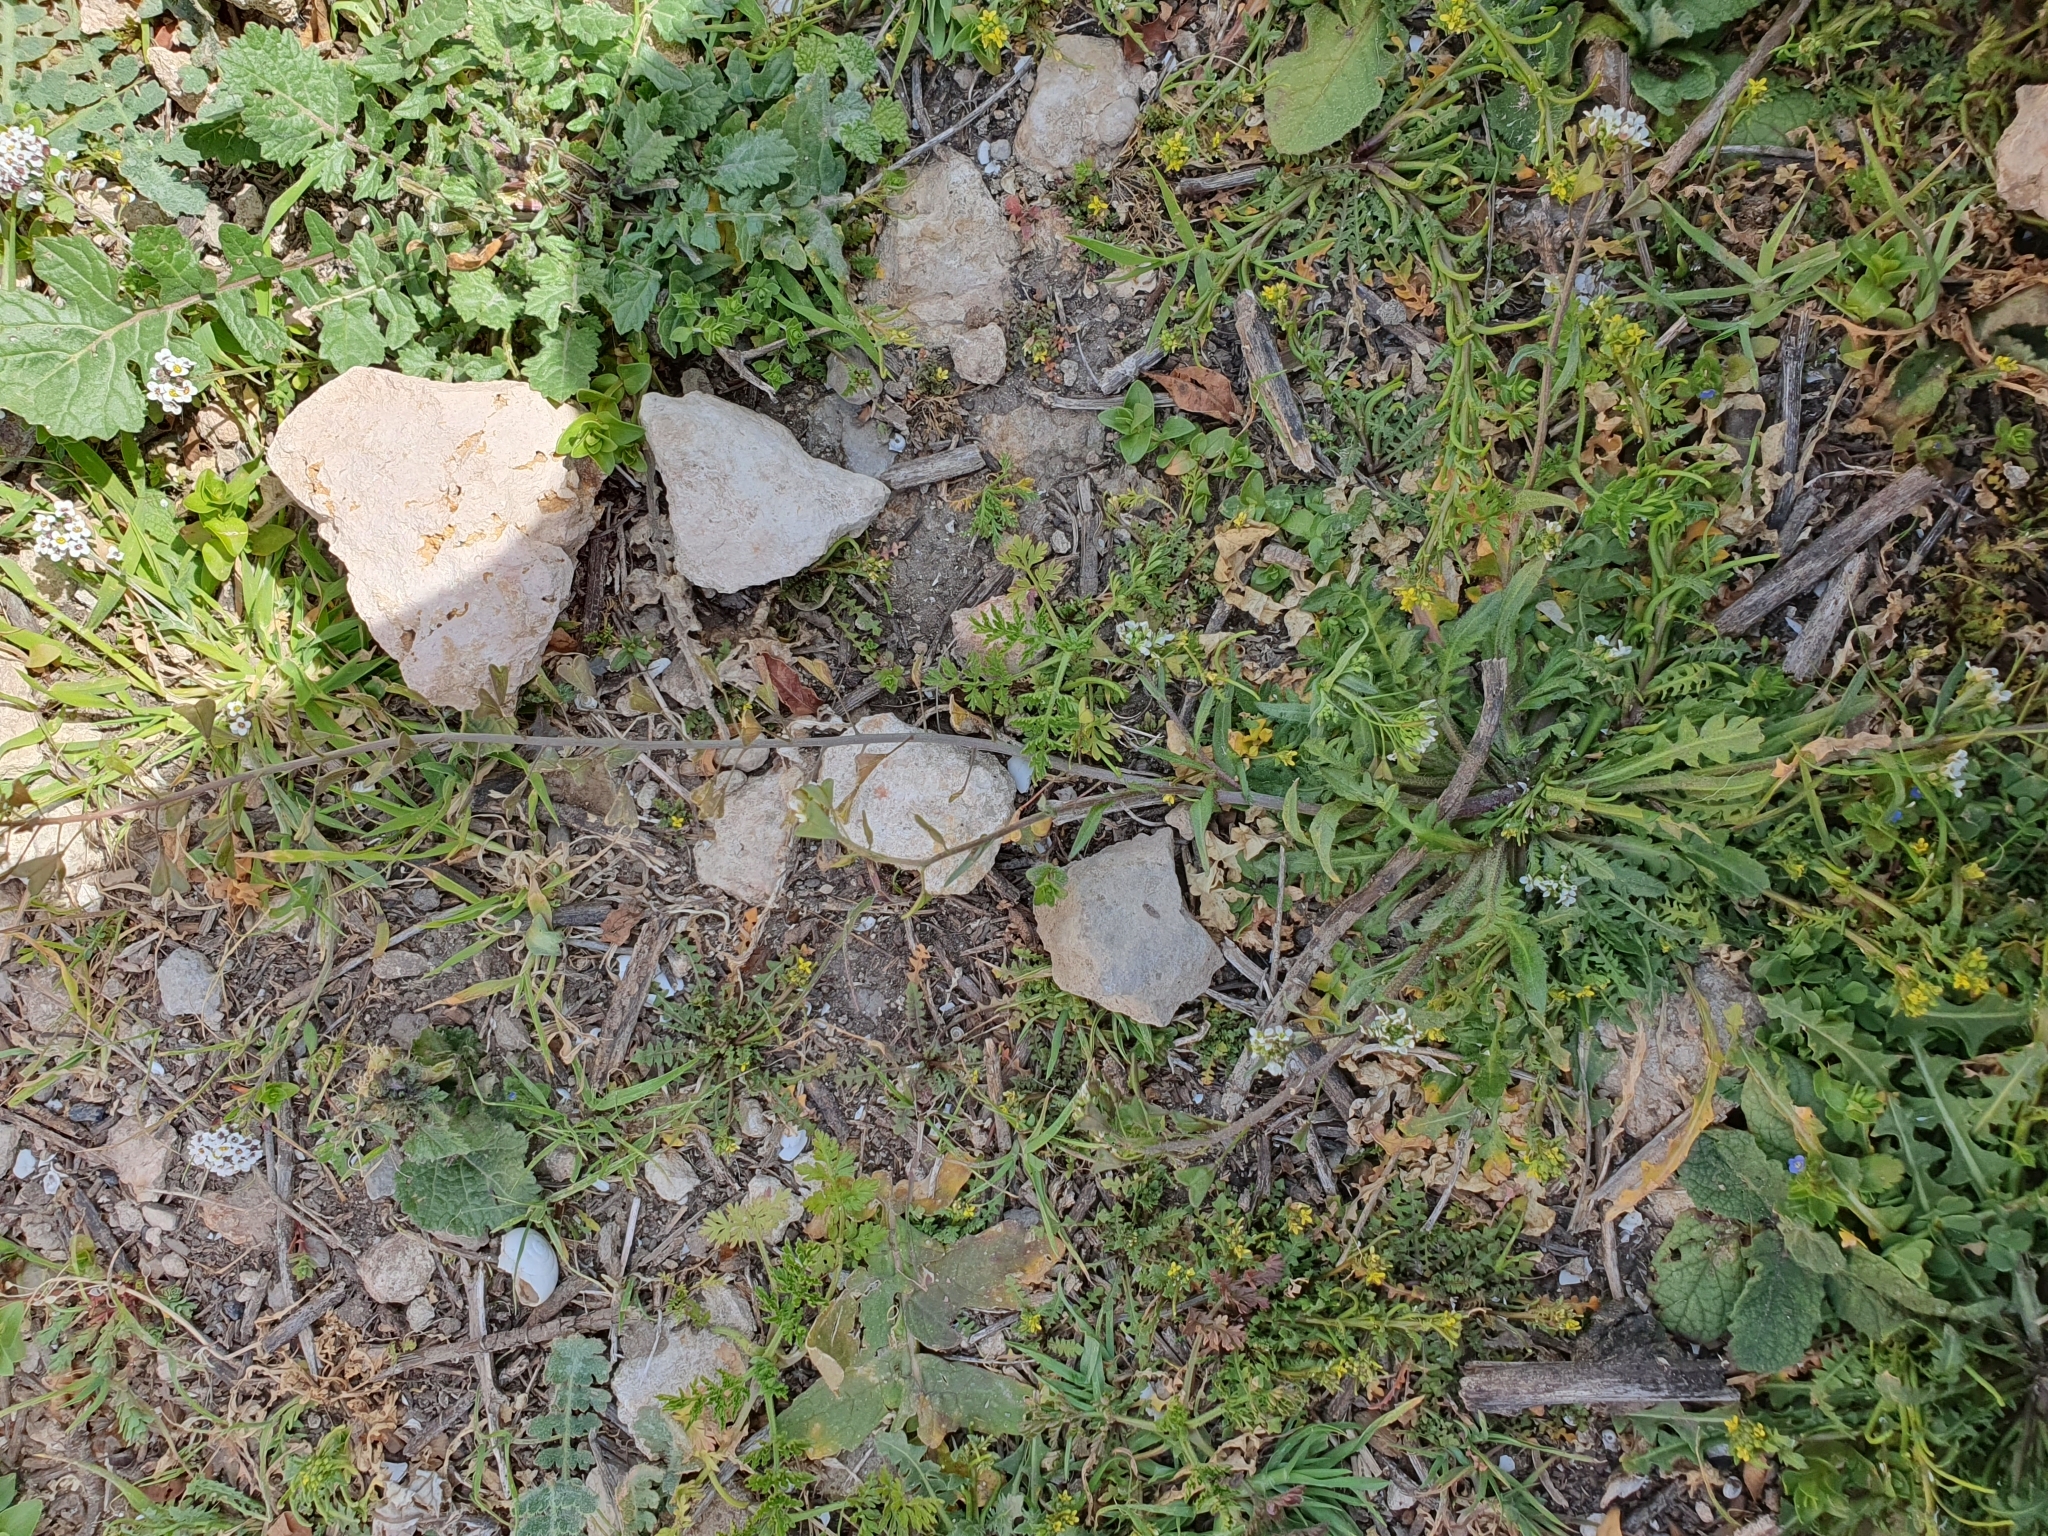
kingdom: Plantae
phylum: Tracheophyta
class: Magnoliopsida
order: Brassicales
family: Brassicaceae
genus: Capsella
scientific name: Capsella bursa-pastoris
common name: Shepherd's purse
